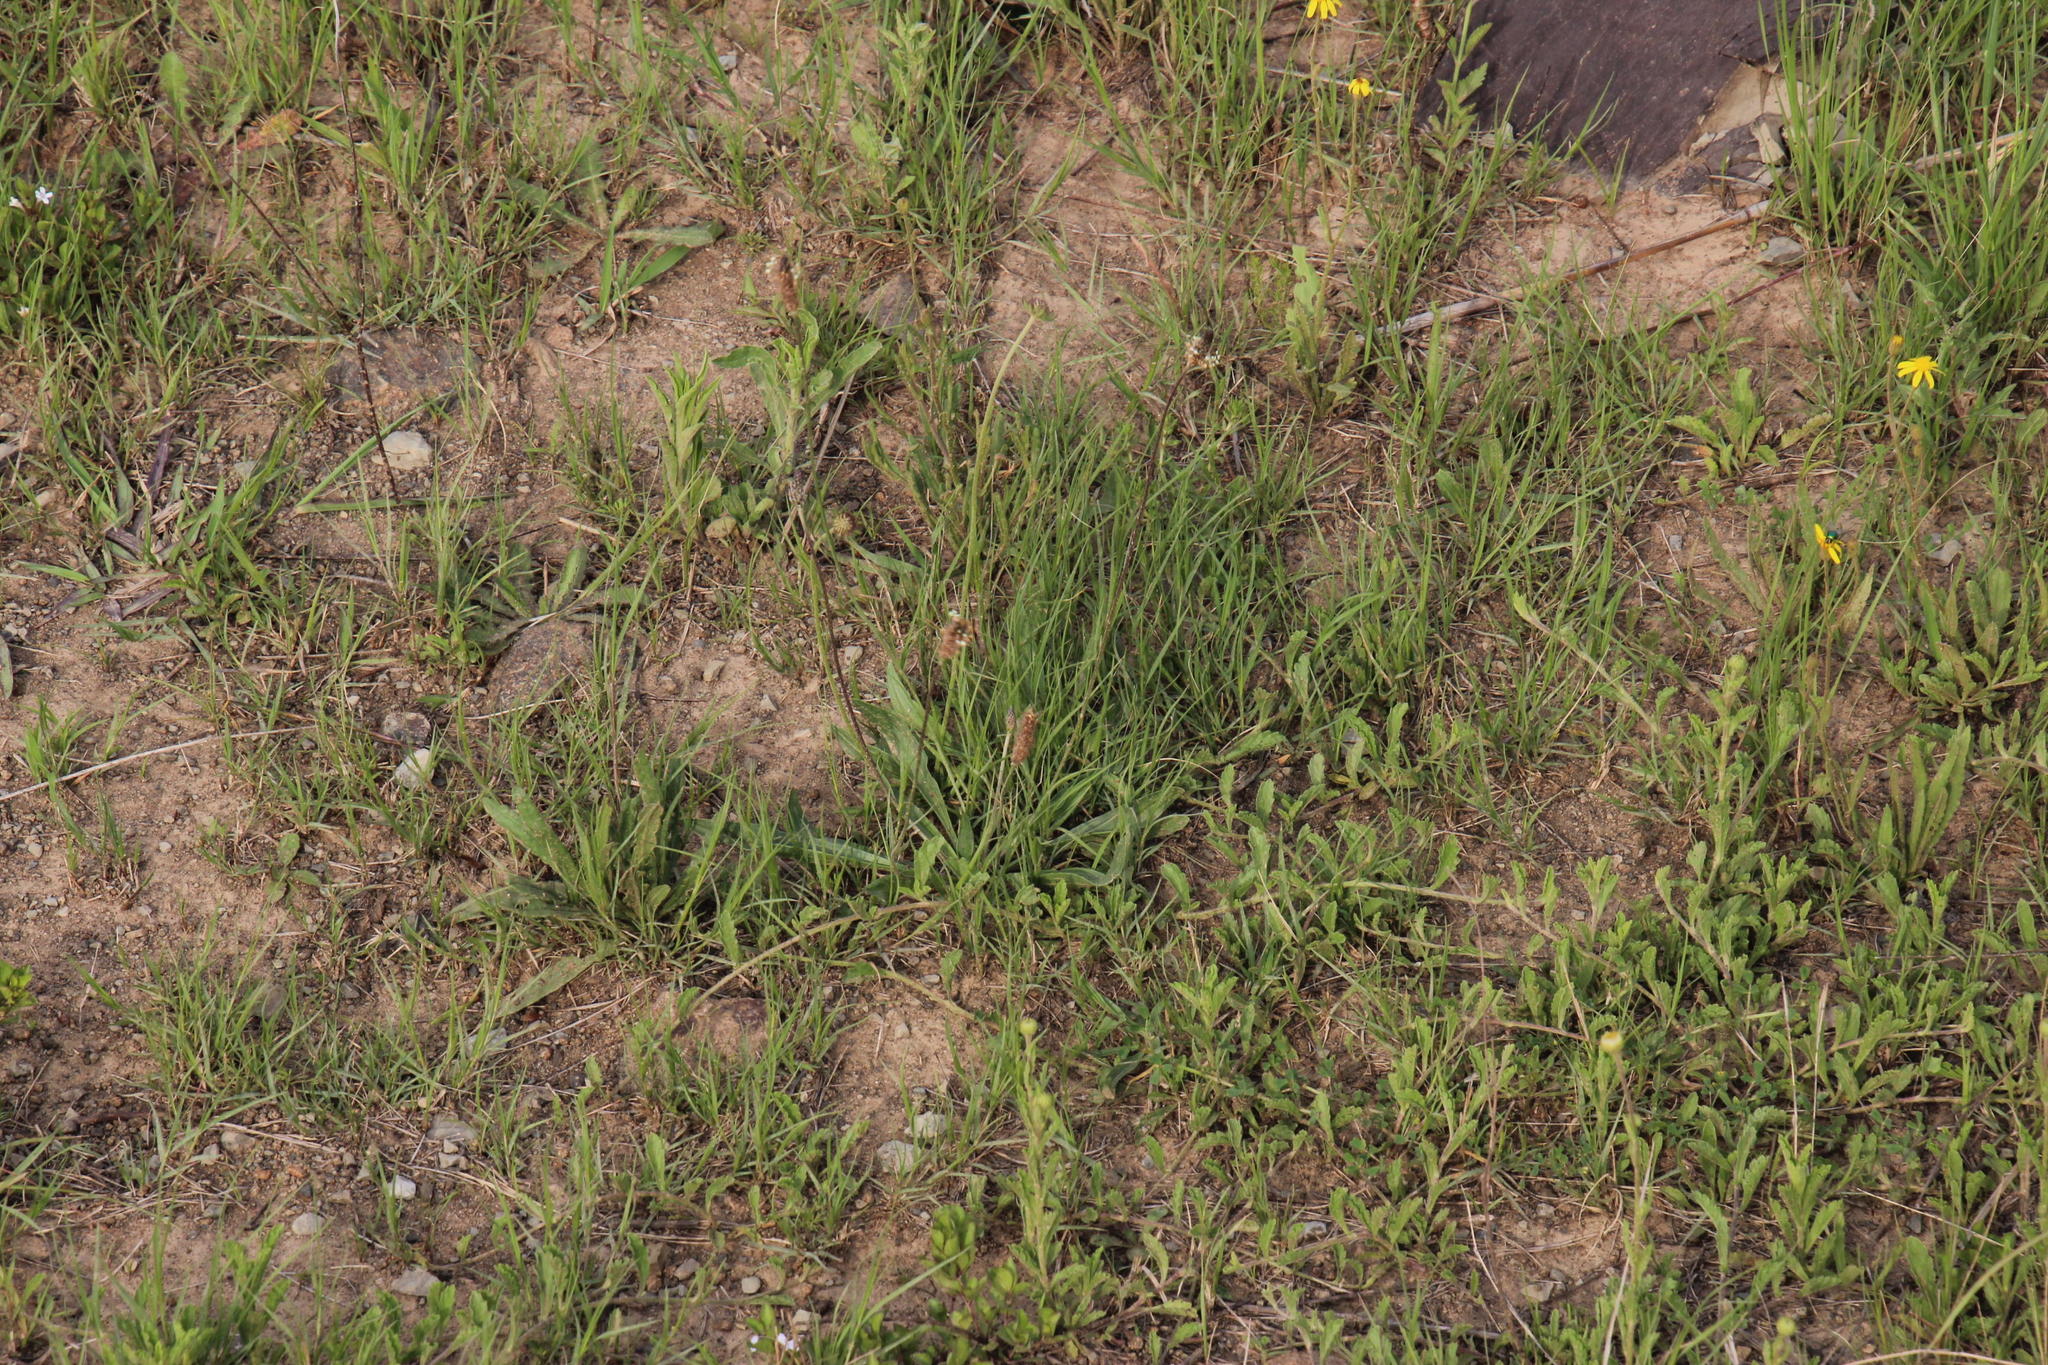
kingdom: Plantae
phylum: Tracheophyta
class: Magnoliopsida
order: Lamiales
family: Plantaginaceae
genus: Plantago
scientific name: Plantago lanceolata
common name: Ribwort plantain
